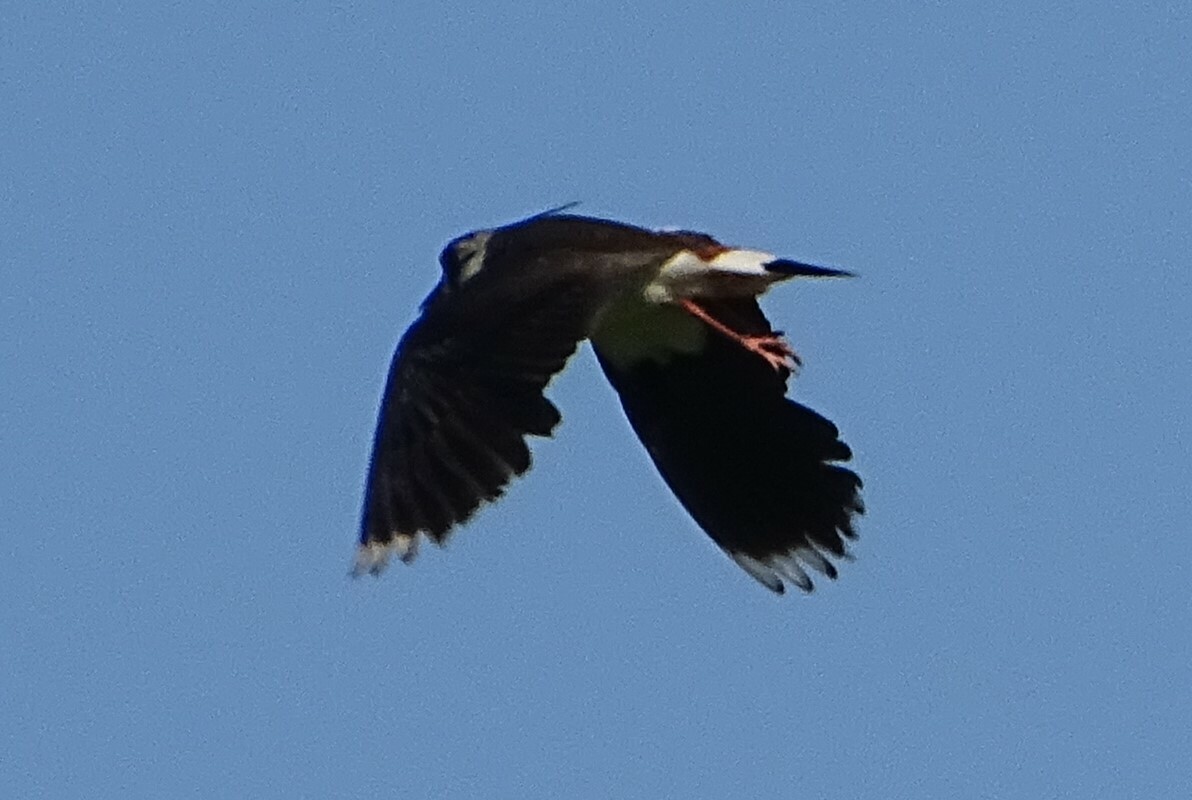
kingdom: Animalia
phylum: Chordata
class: Aves
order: Charadriiformes
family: Charadriidae
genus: Vanellus
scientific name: Vanellus vanellus
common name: Northern lapwing
